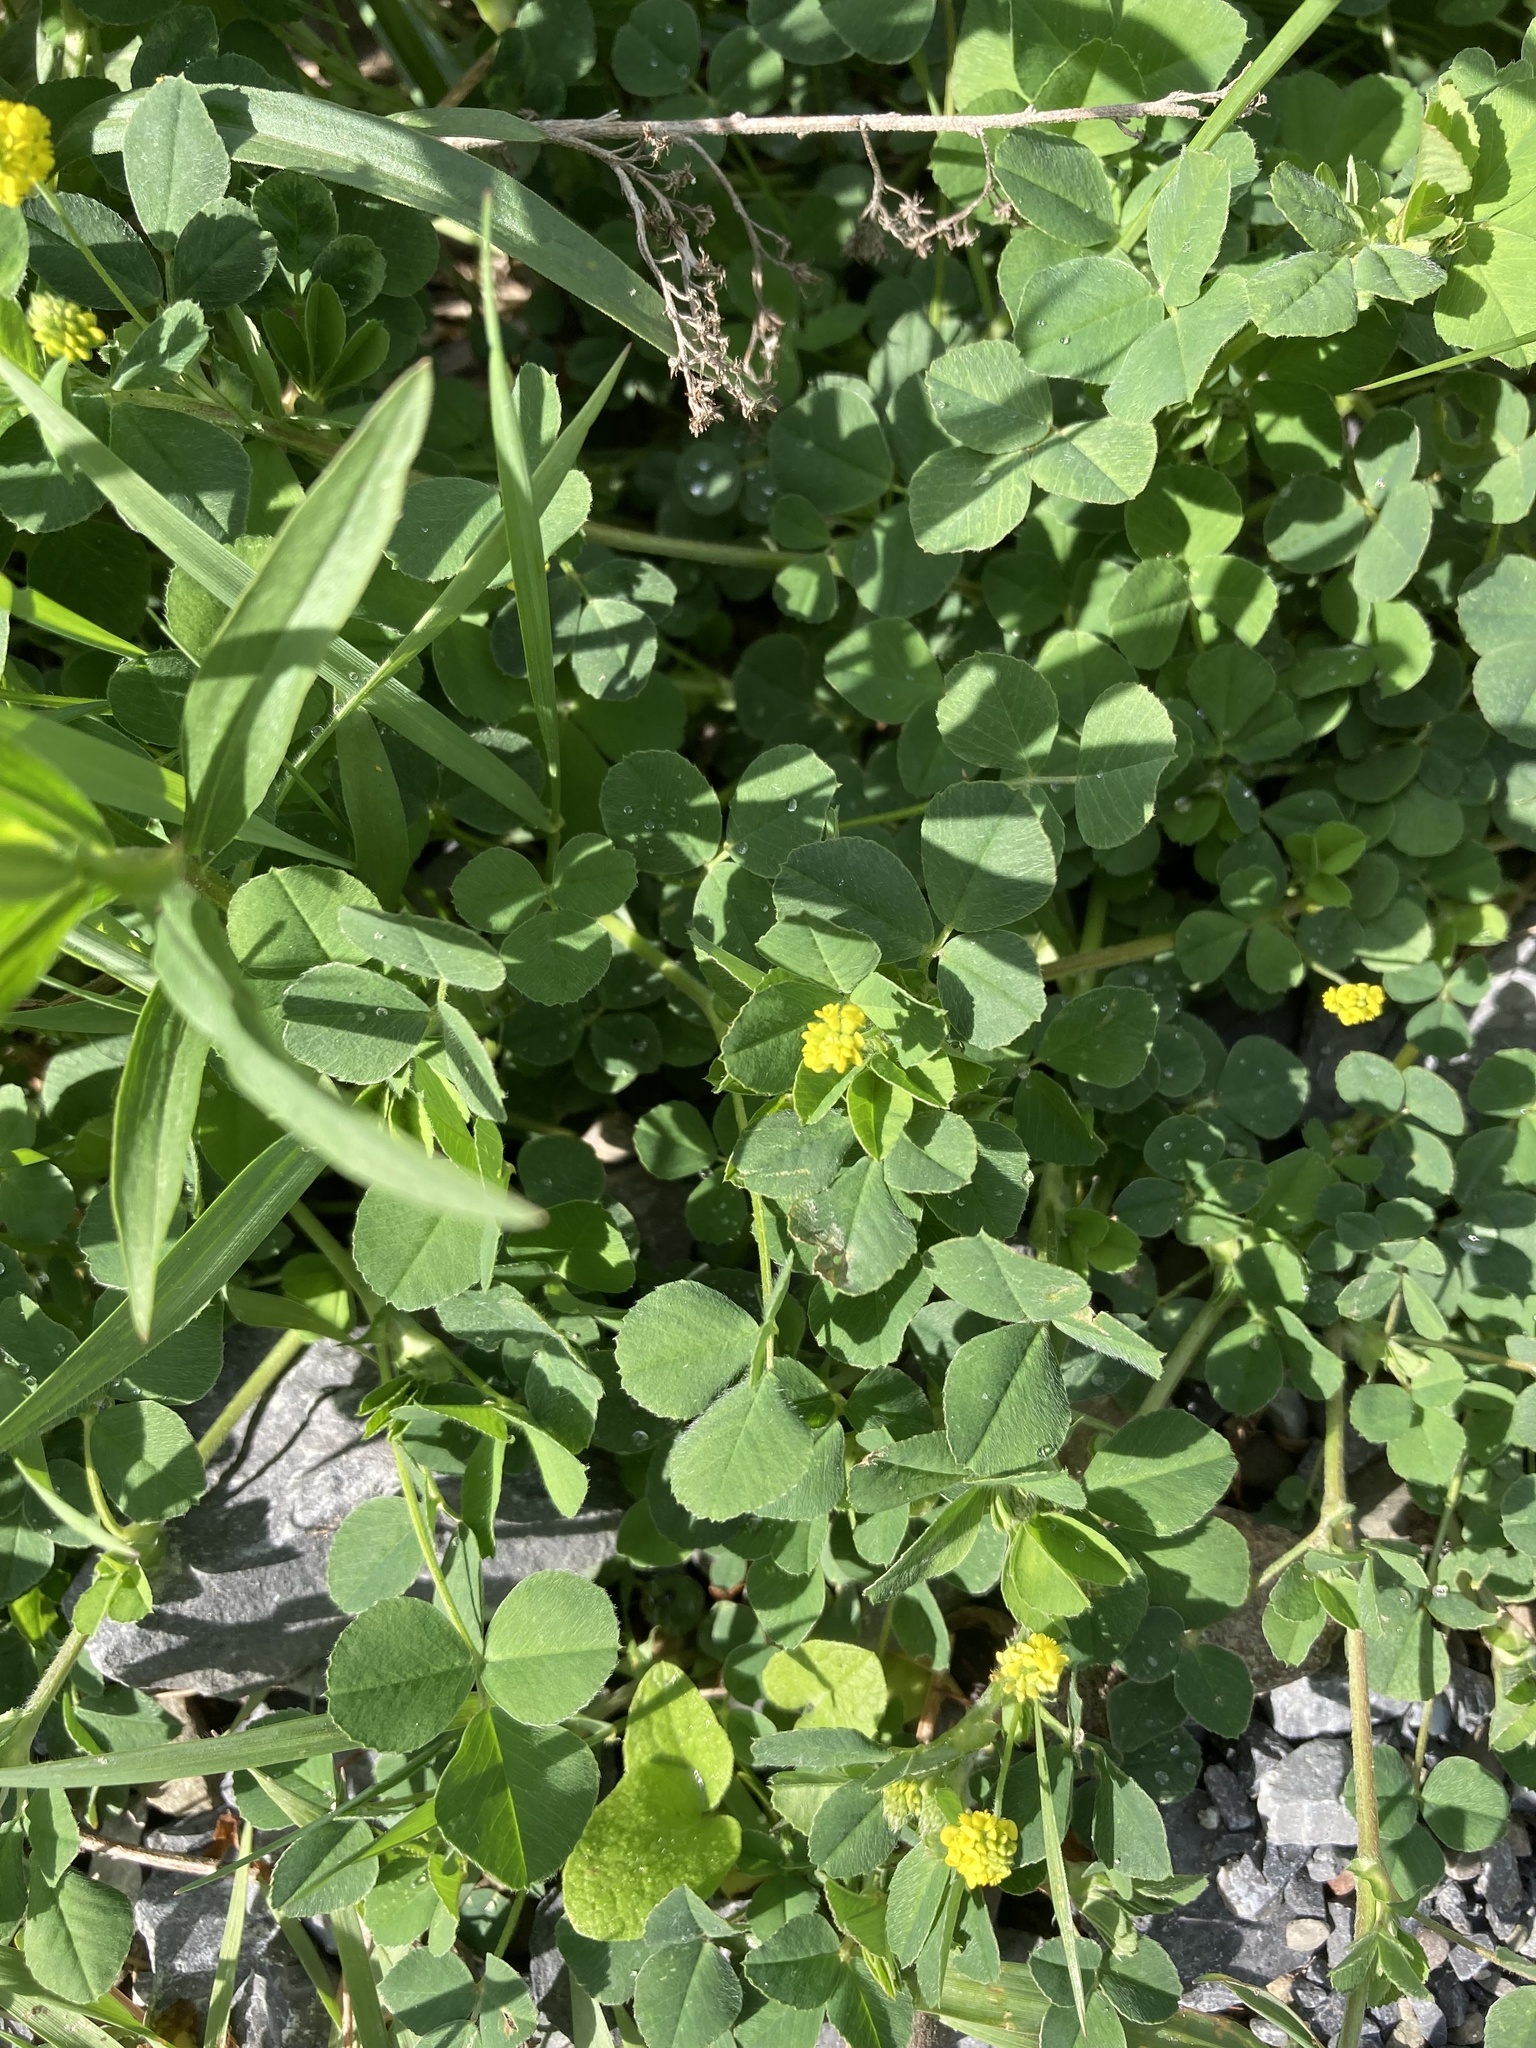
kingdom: Plantae
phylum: Tracheophyta
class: Magnoliopsida
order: Fabales
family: Fabaceae
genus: Medicago
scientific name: Medicago lupulina
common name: Black medick
